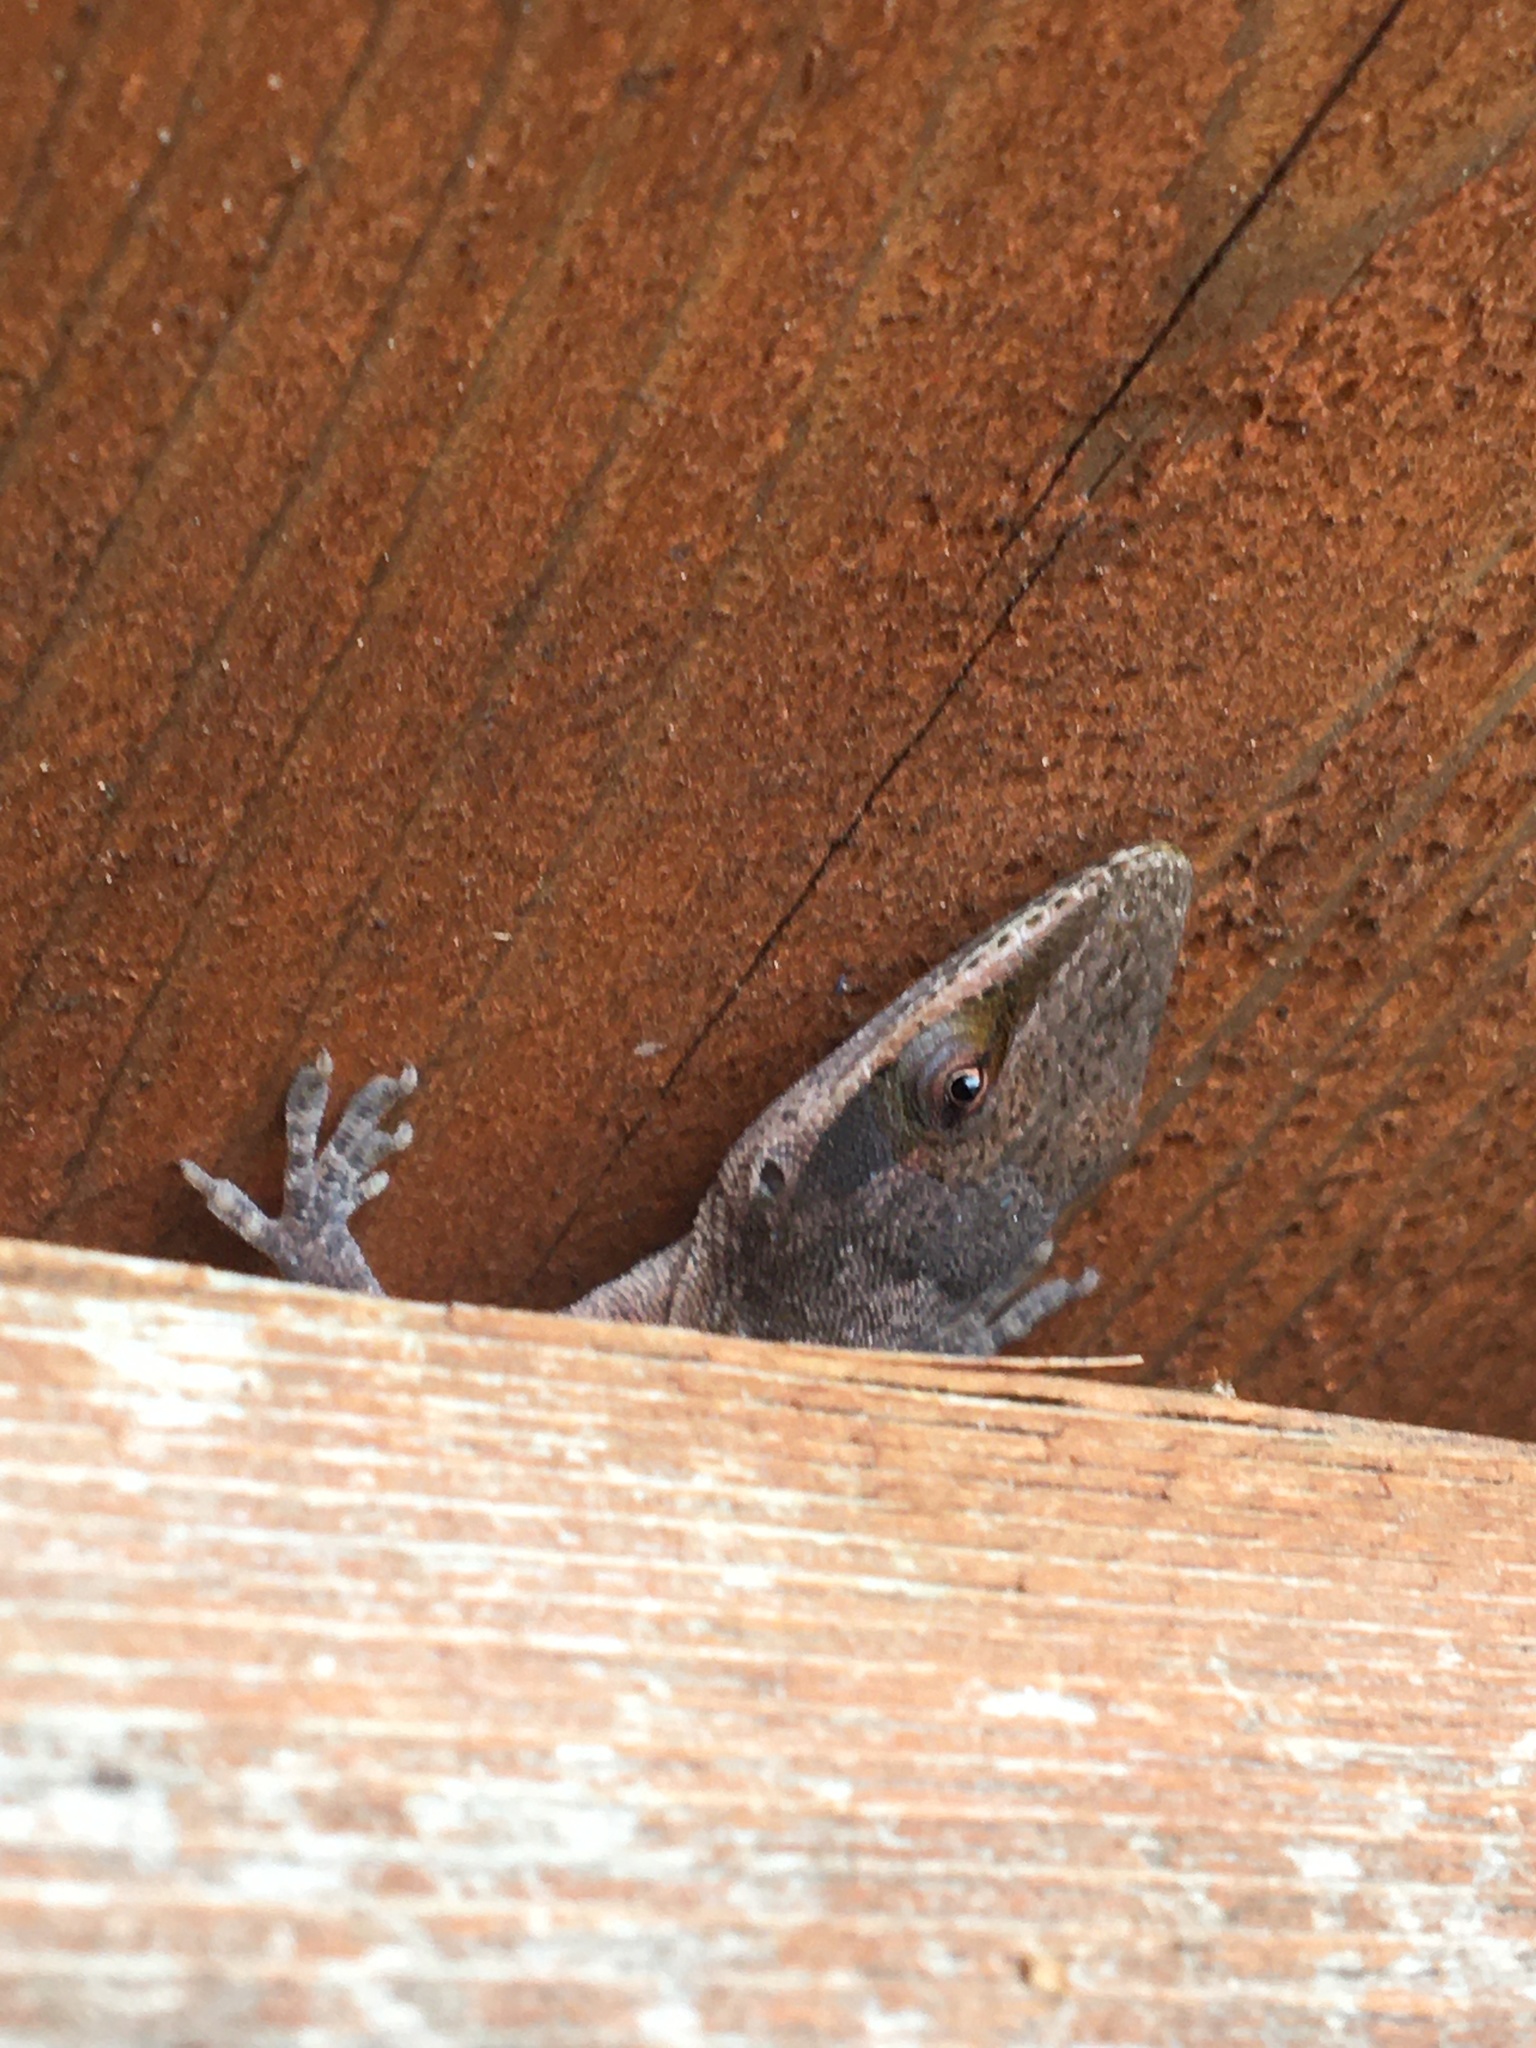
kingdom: Animalia
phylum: Chordata
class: Squamata
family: Dactyloidae
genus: Anolis
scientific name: Anolis carolinensis
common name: Green anole
